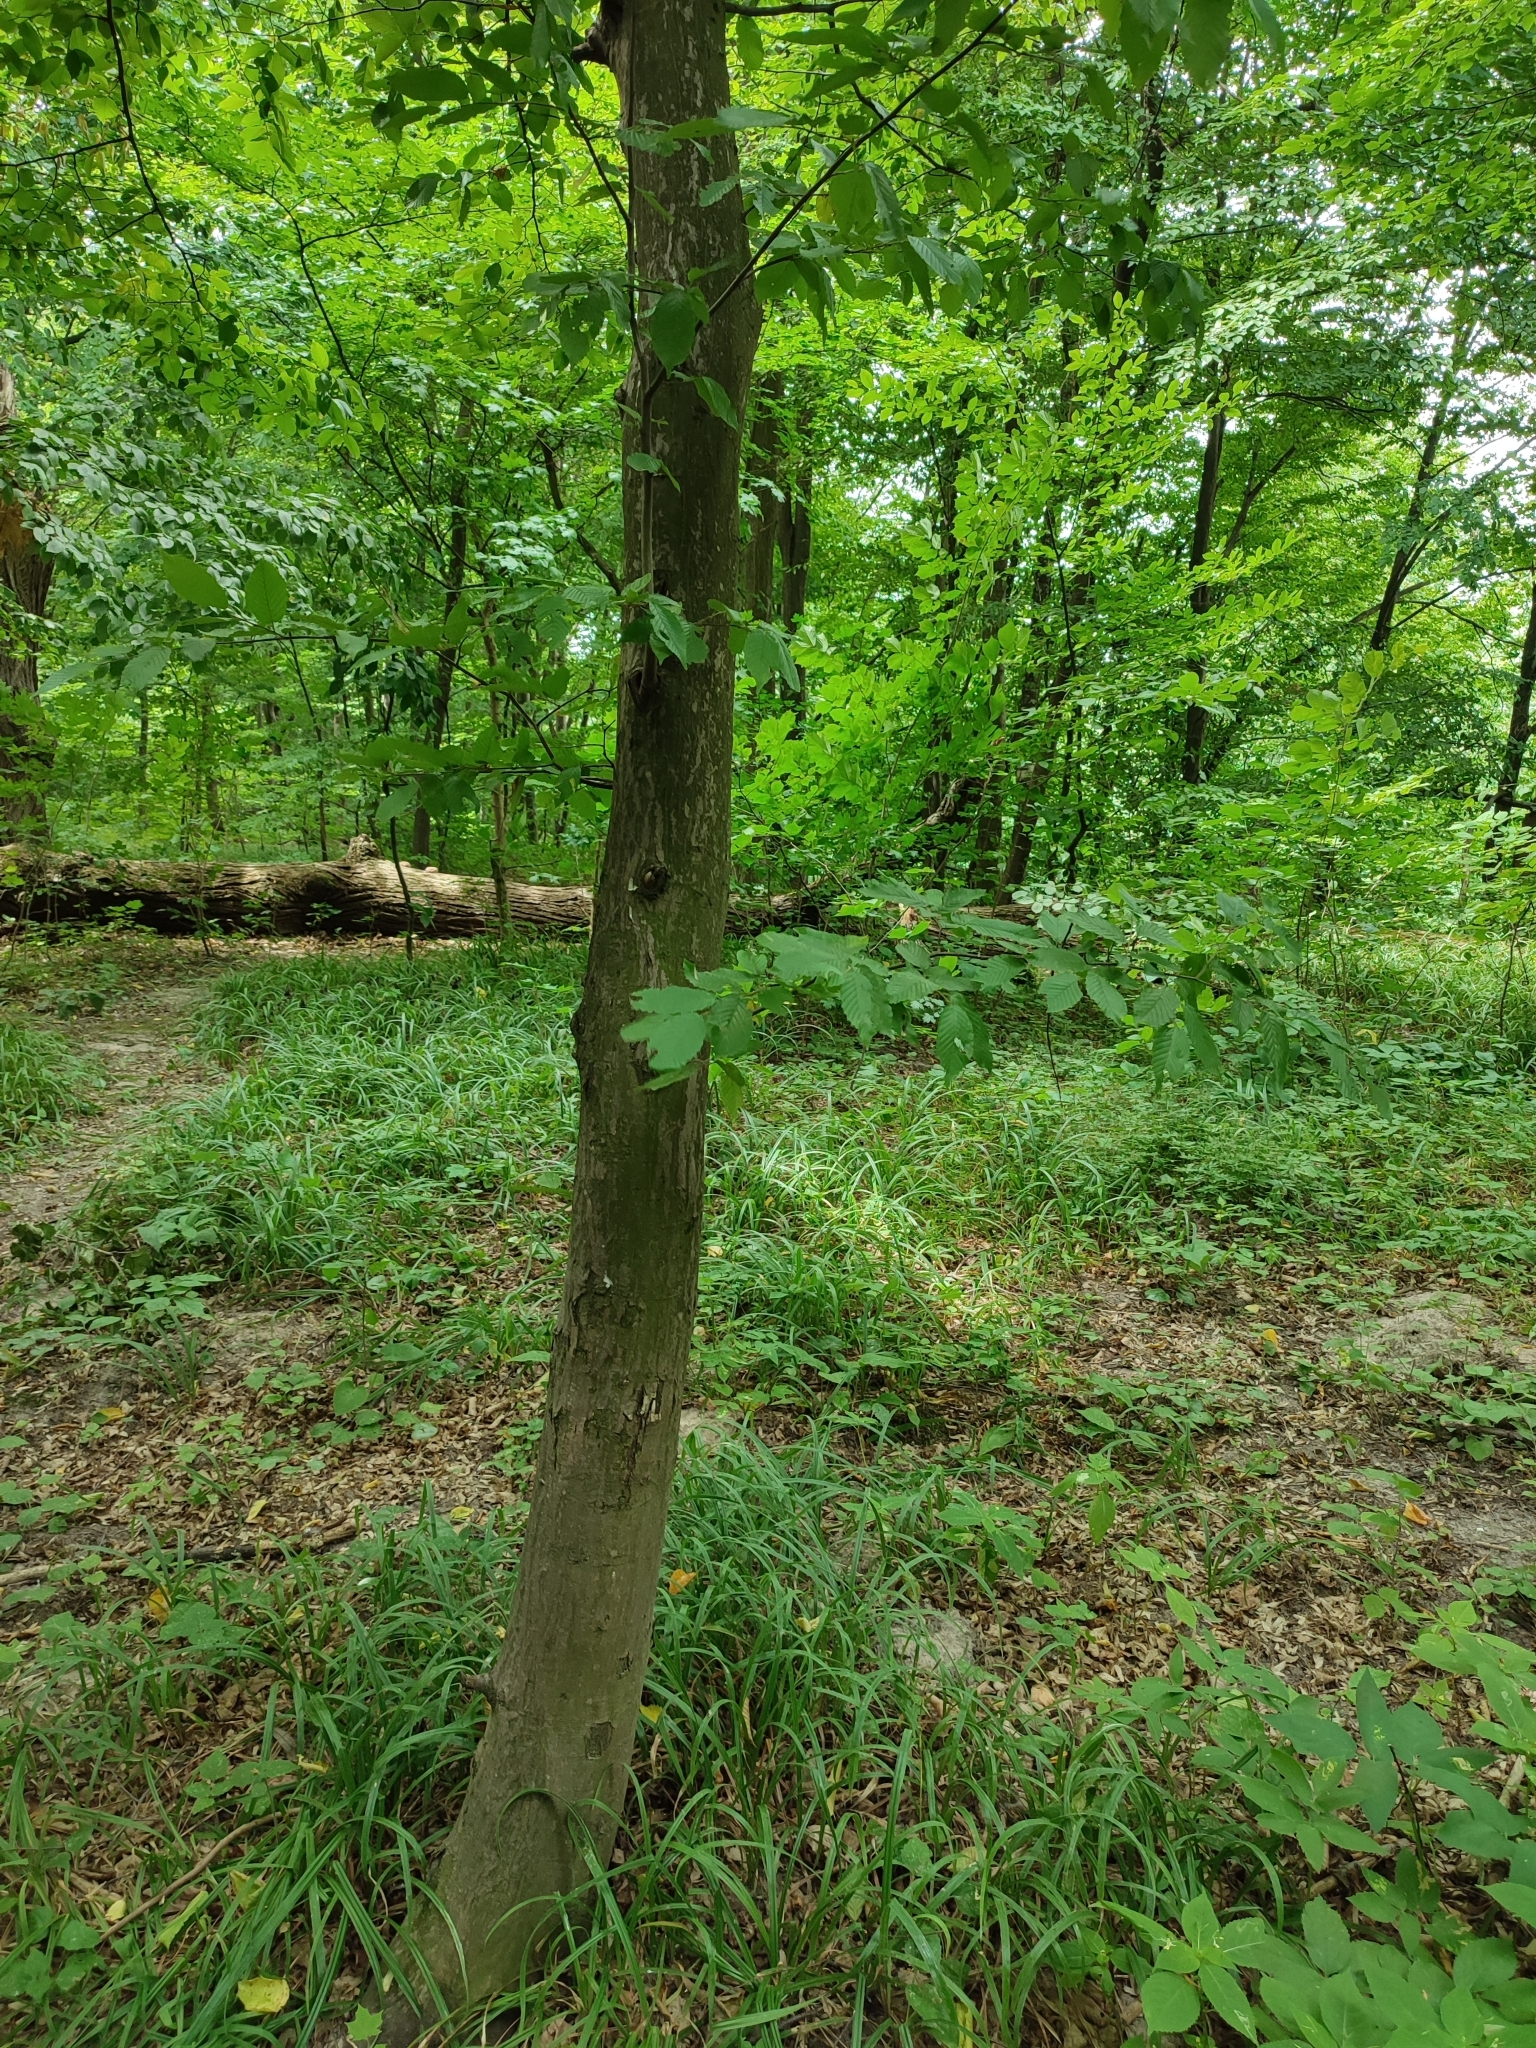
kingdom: Plantae
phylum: Tracheophyta
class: Magnoliopsida
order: Fagales
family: Betulaceae
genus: Carpinus
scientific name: Carpinus betulus
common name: Hornbeam
